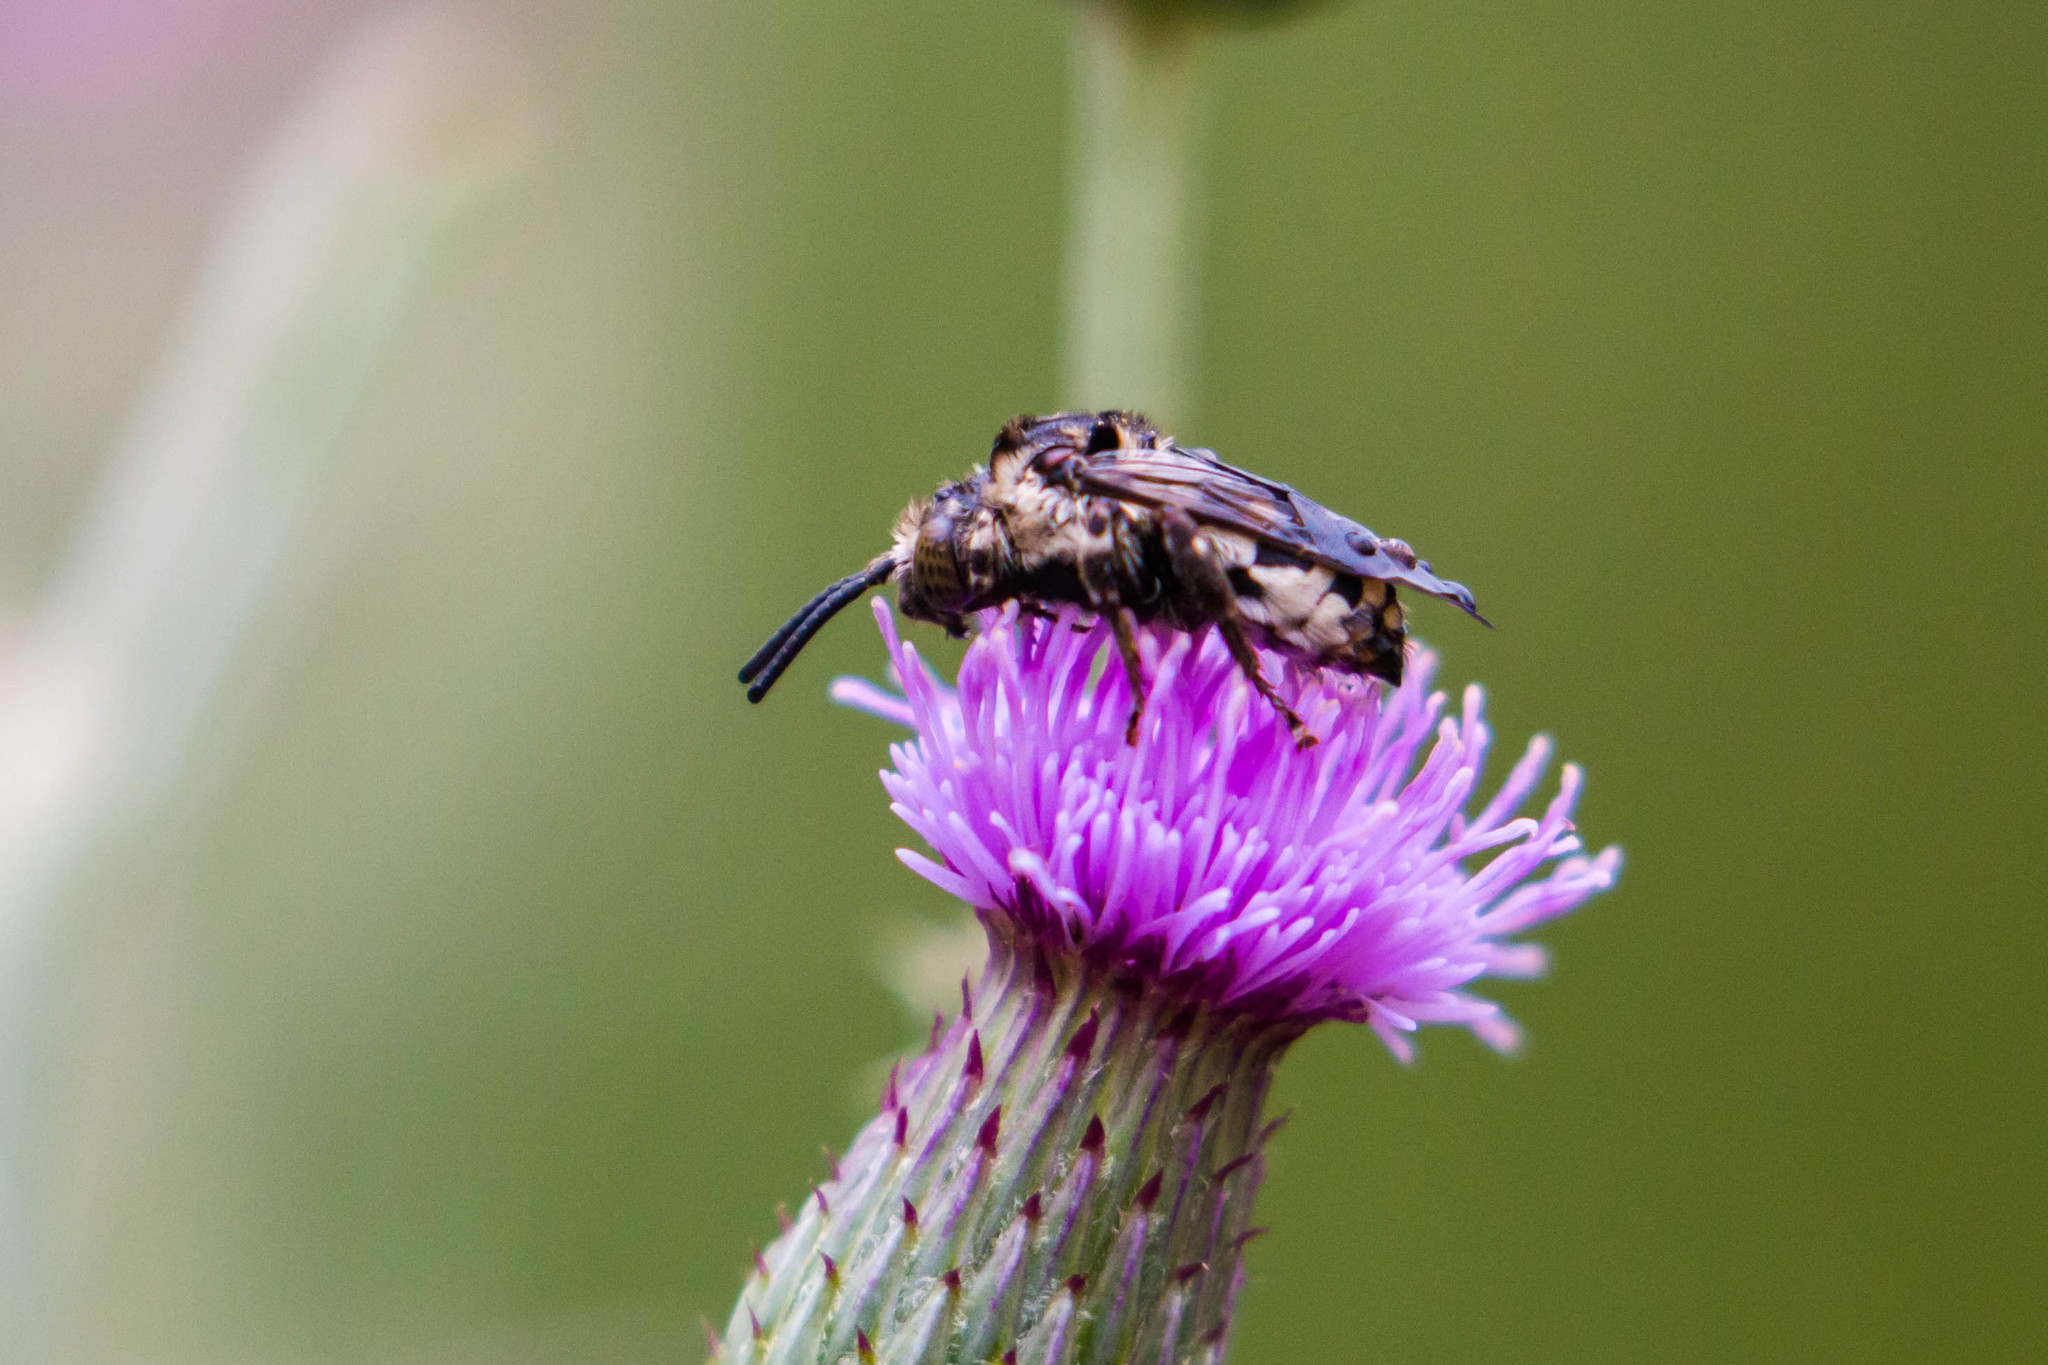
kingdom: Animalia
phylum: Arthropoda
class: Insecta
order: Hymenoptera
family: Apidae
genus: Brachymelecta
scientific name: Brachymelecta californica
